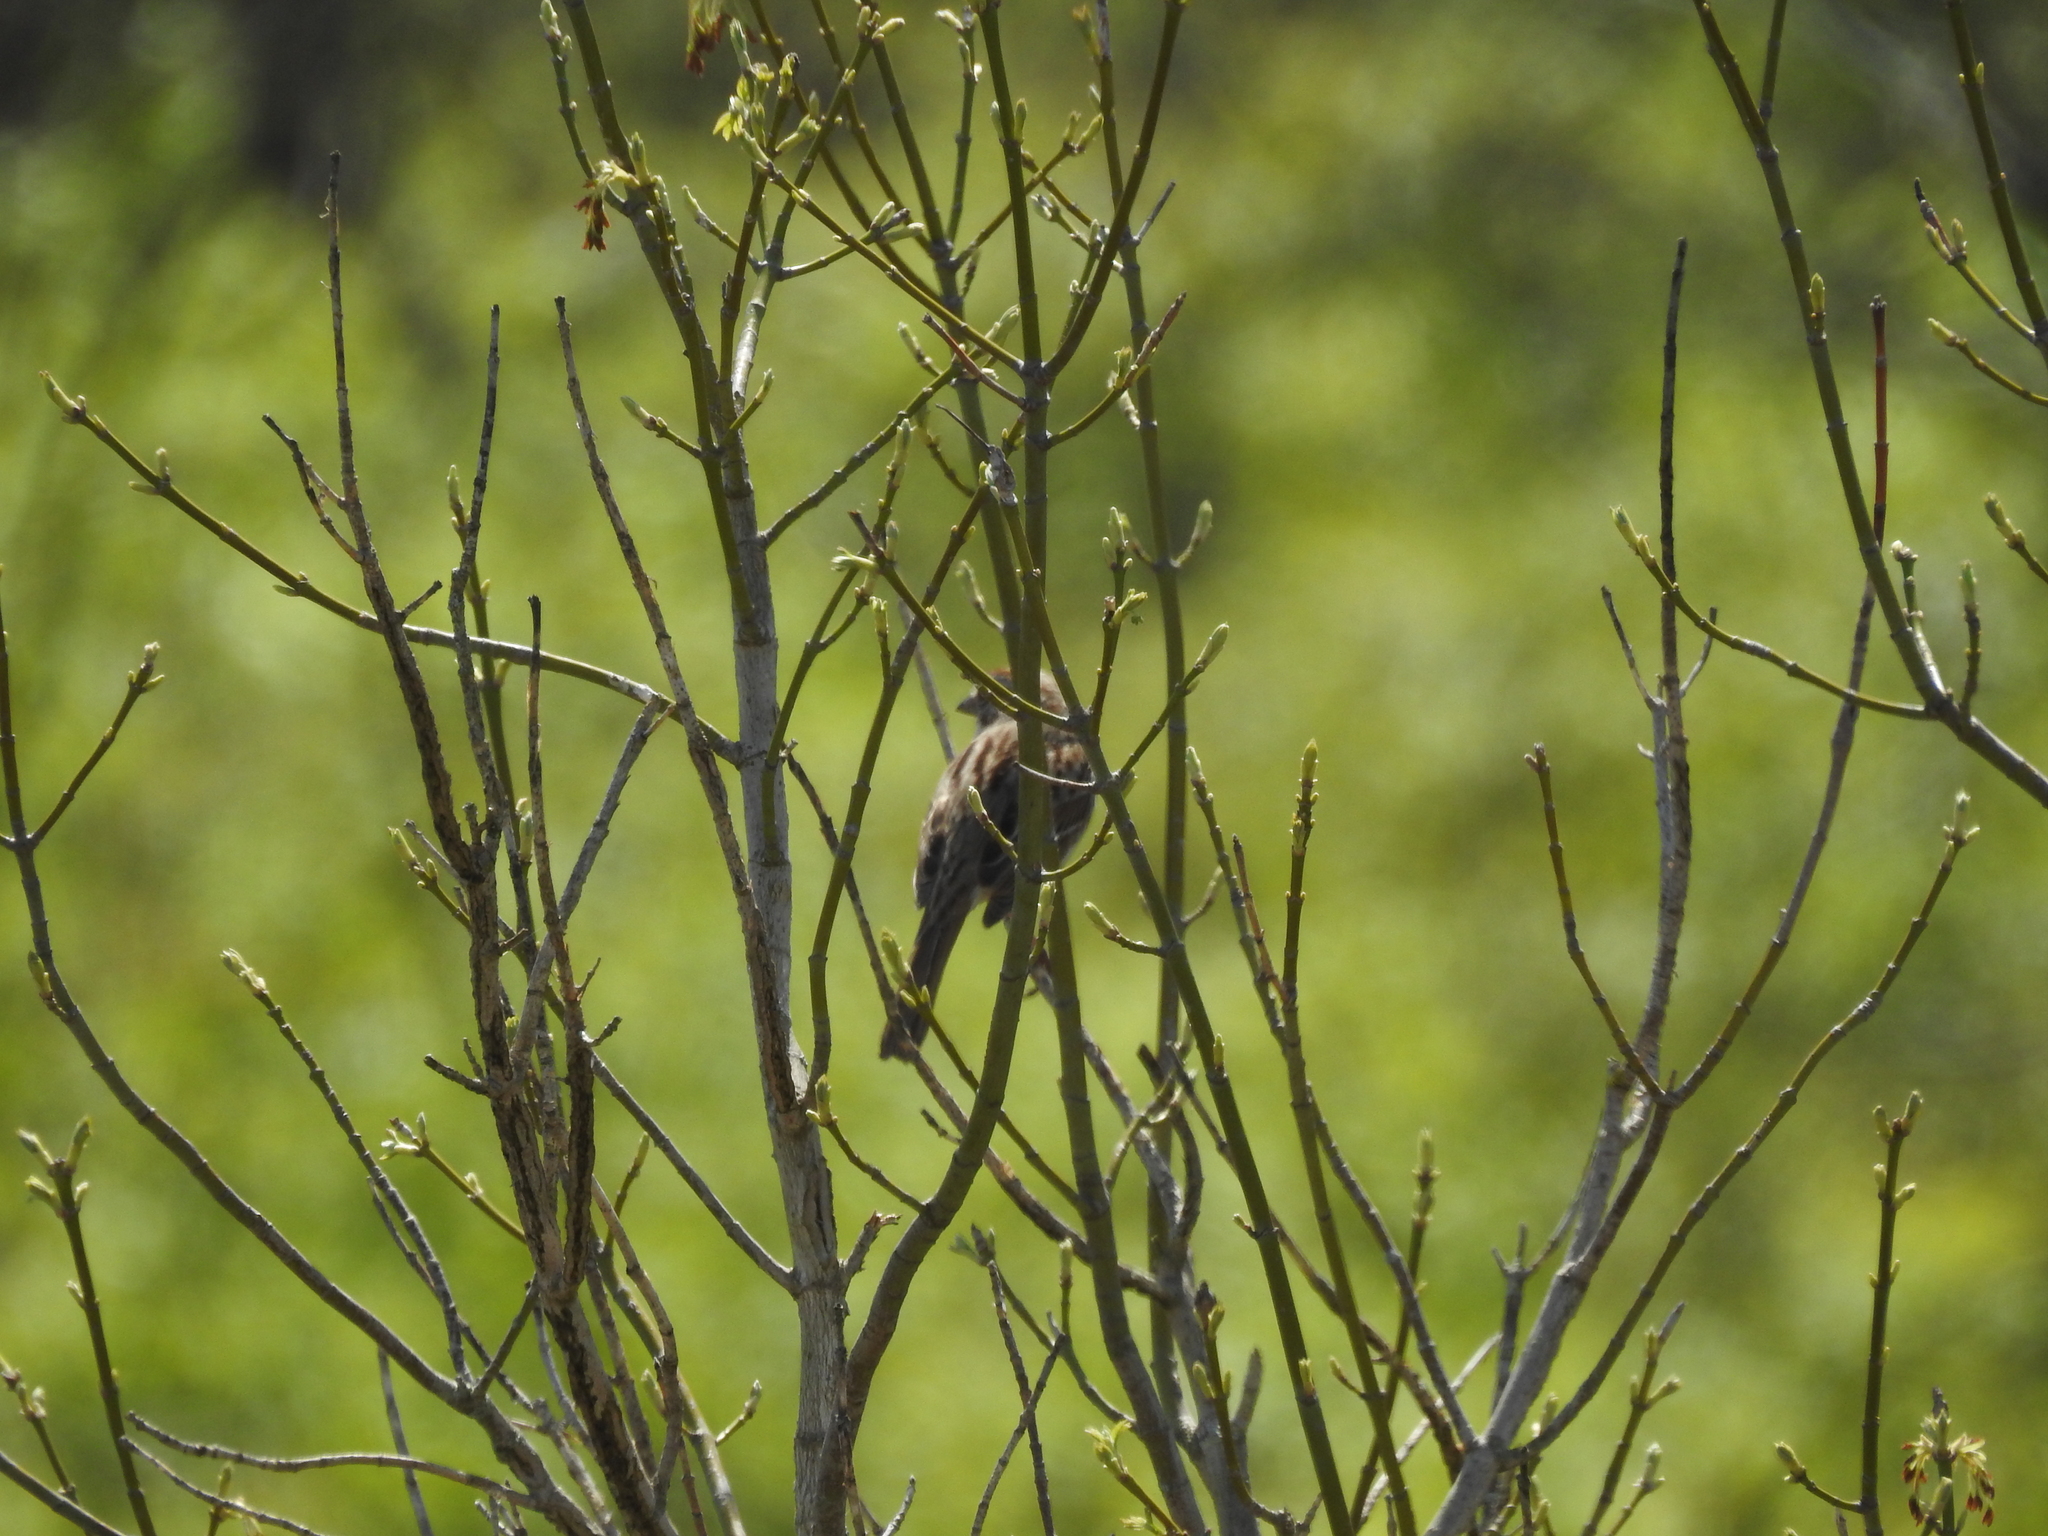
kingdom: Animalia
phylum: Chordata
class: Aves
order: Passeriformes
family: Passerellidae
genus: Melospiza
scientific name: Melospiza melodia
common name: Song sparrow
